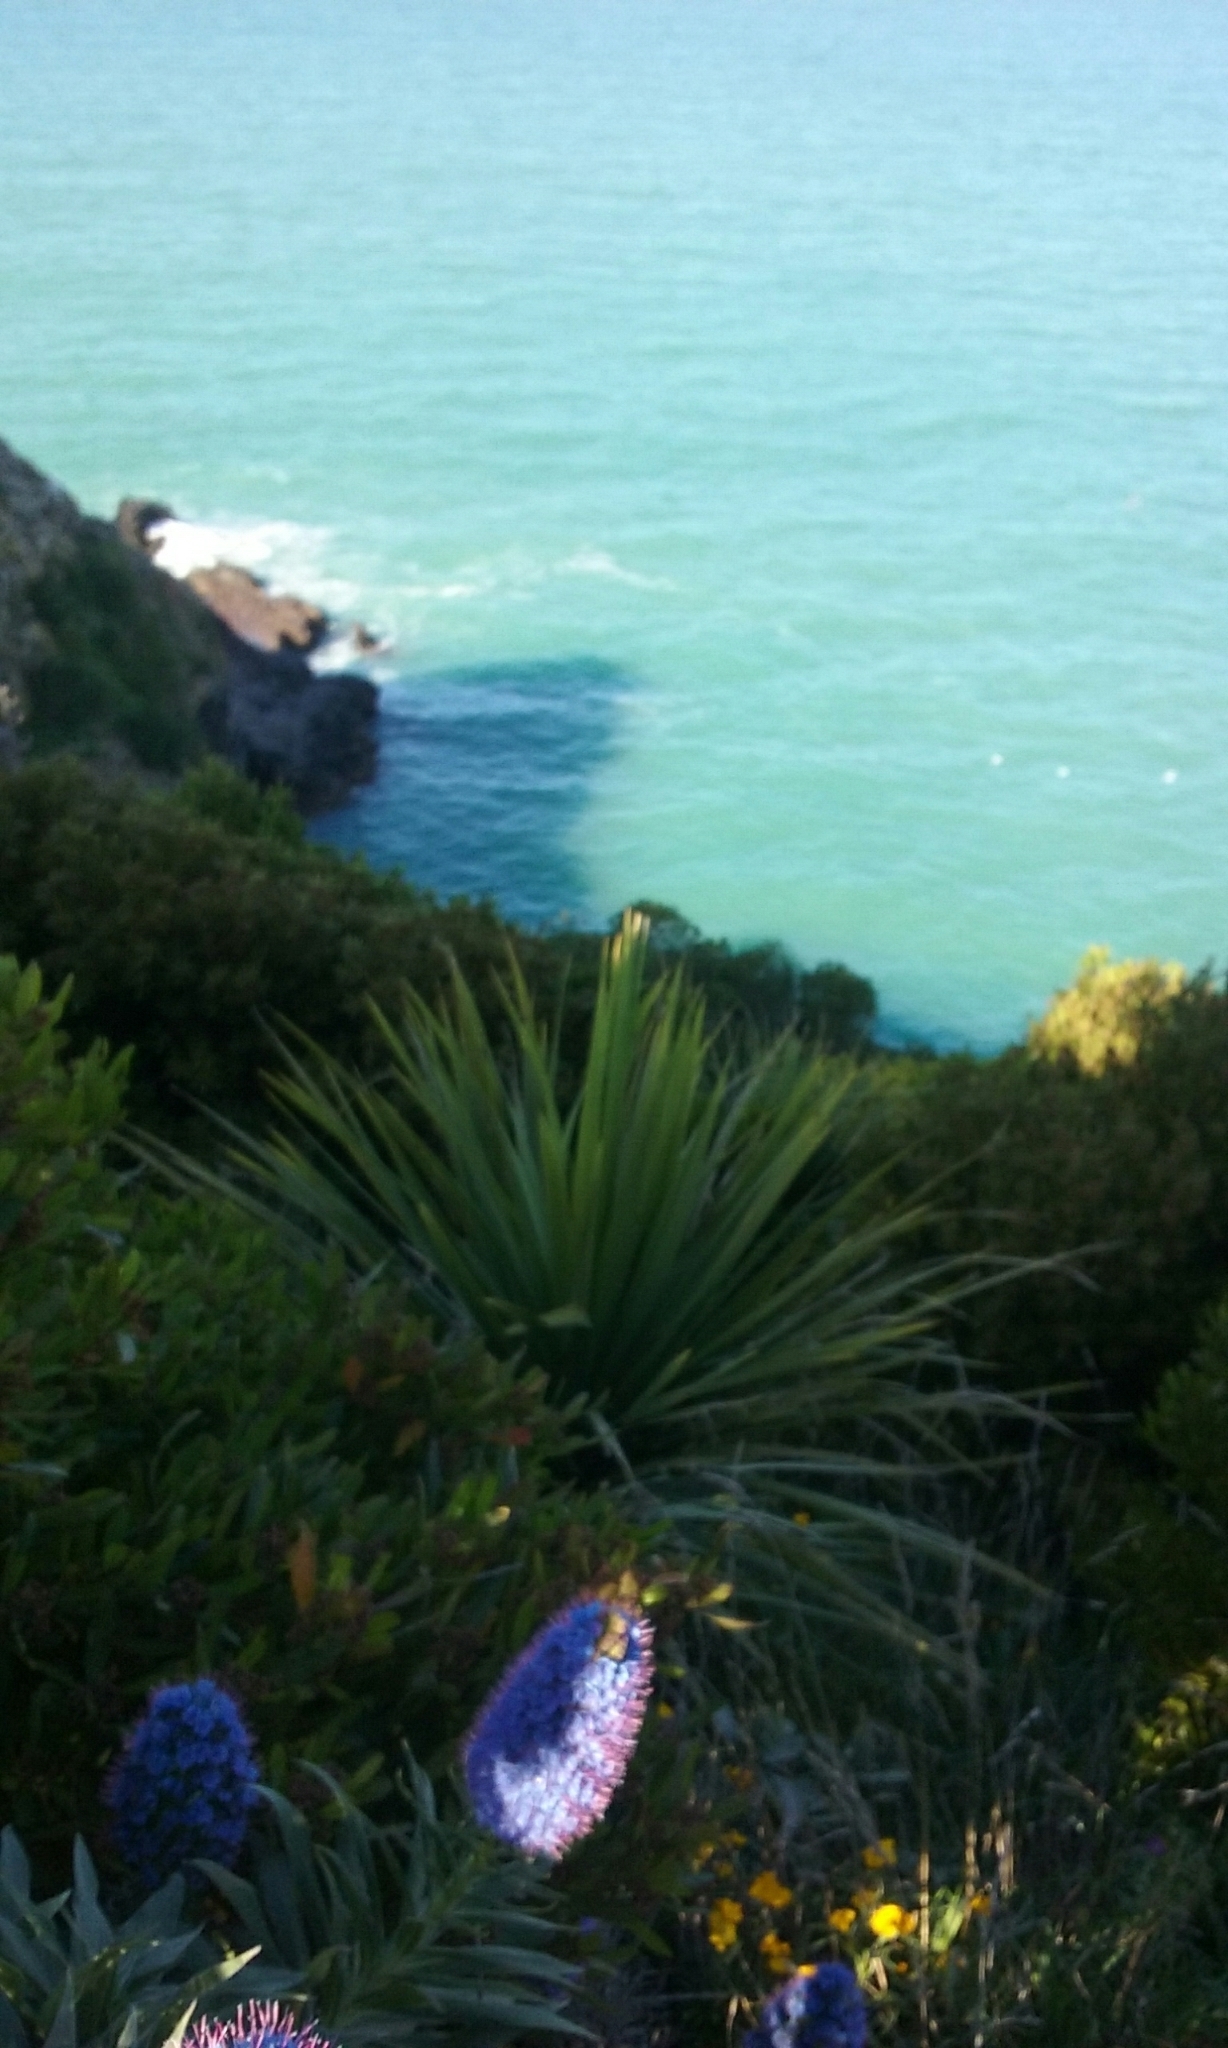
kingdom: Animalia
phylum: Chordata
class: Aves
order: Suliformes
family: Phalacrocoracidae
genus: Phalacrocorax
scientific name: Phalacrocorax punctatus
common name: Spotted shag
